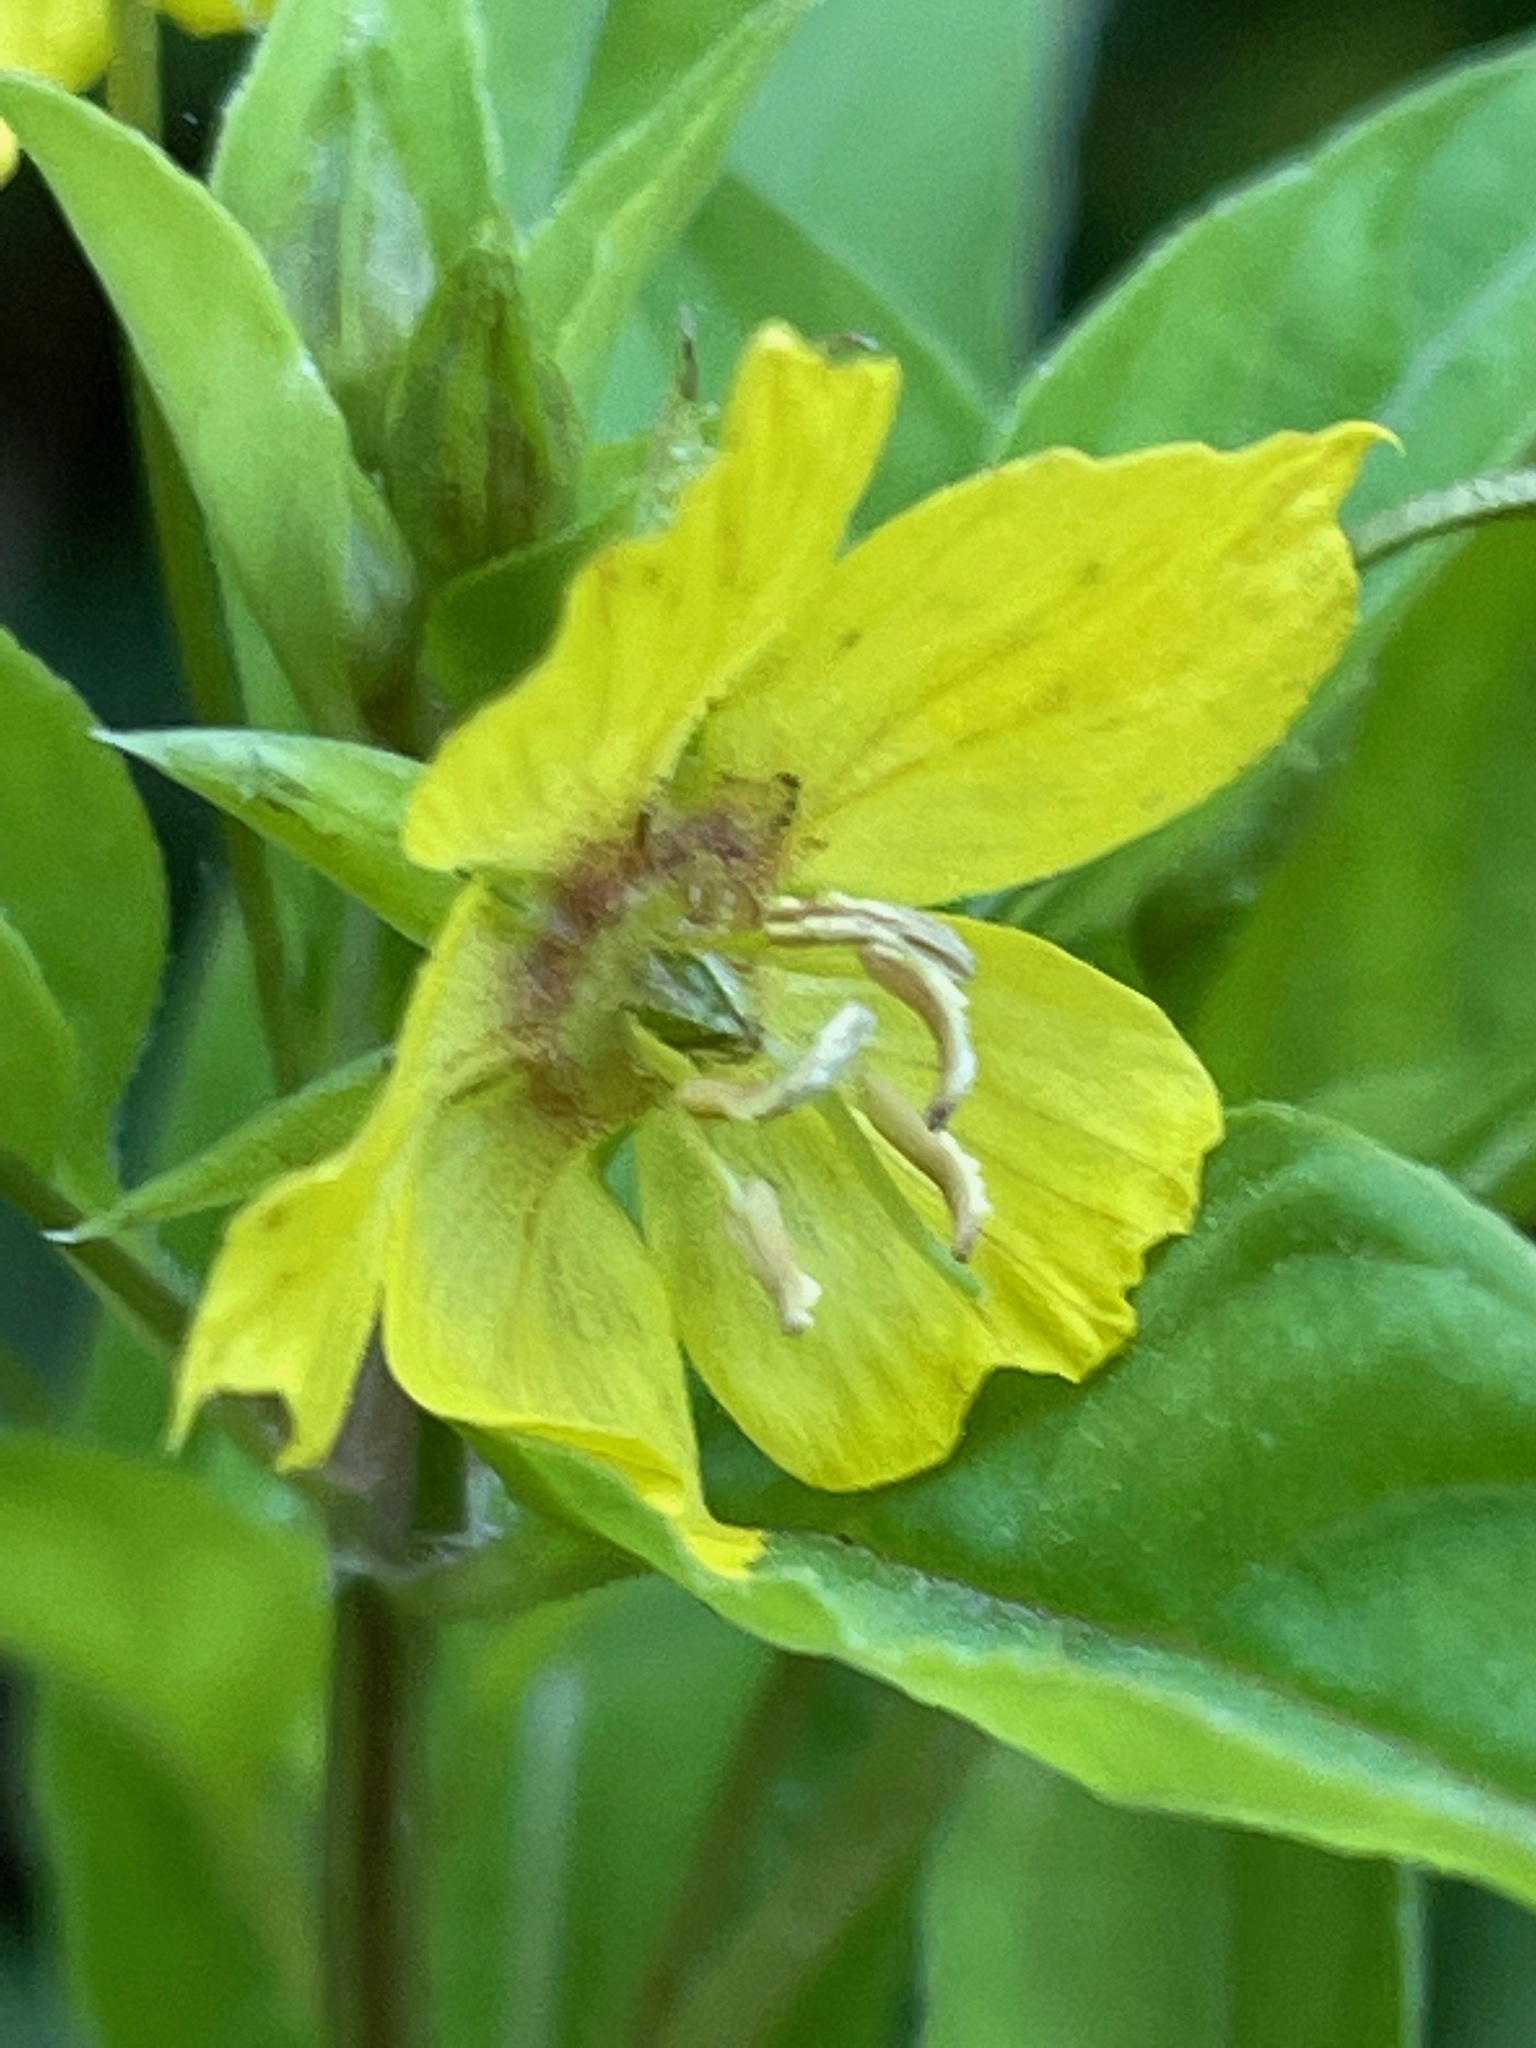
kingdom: Plantae
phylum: Tracheophyta
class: Magnoliopsida
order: Ericales
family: Primulaceae
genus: Lysimachia
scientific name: Lysimachia ciliata
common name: Fringed loosestrife
